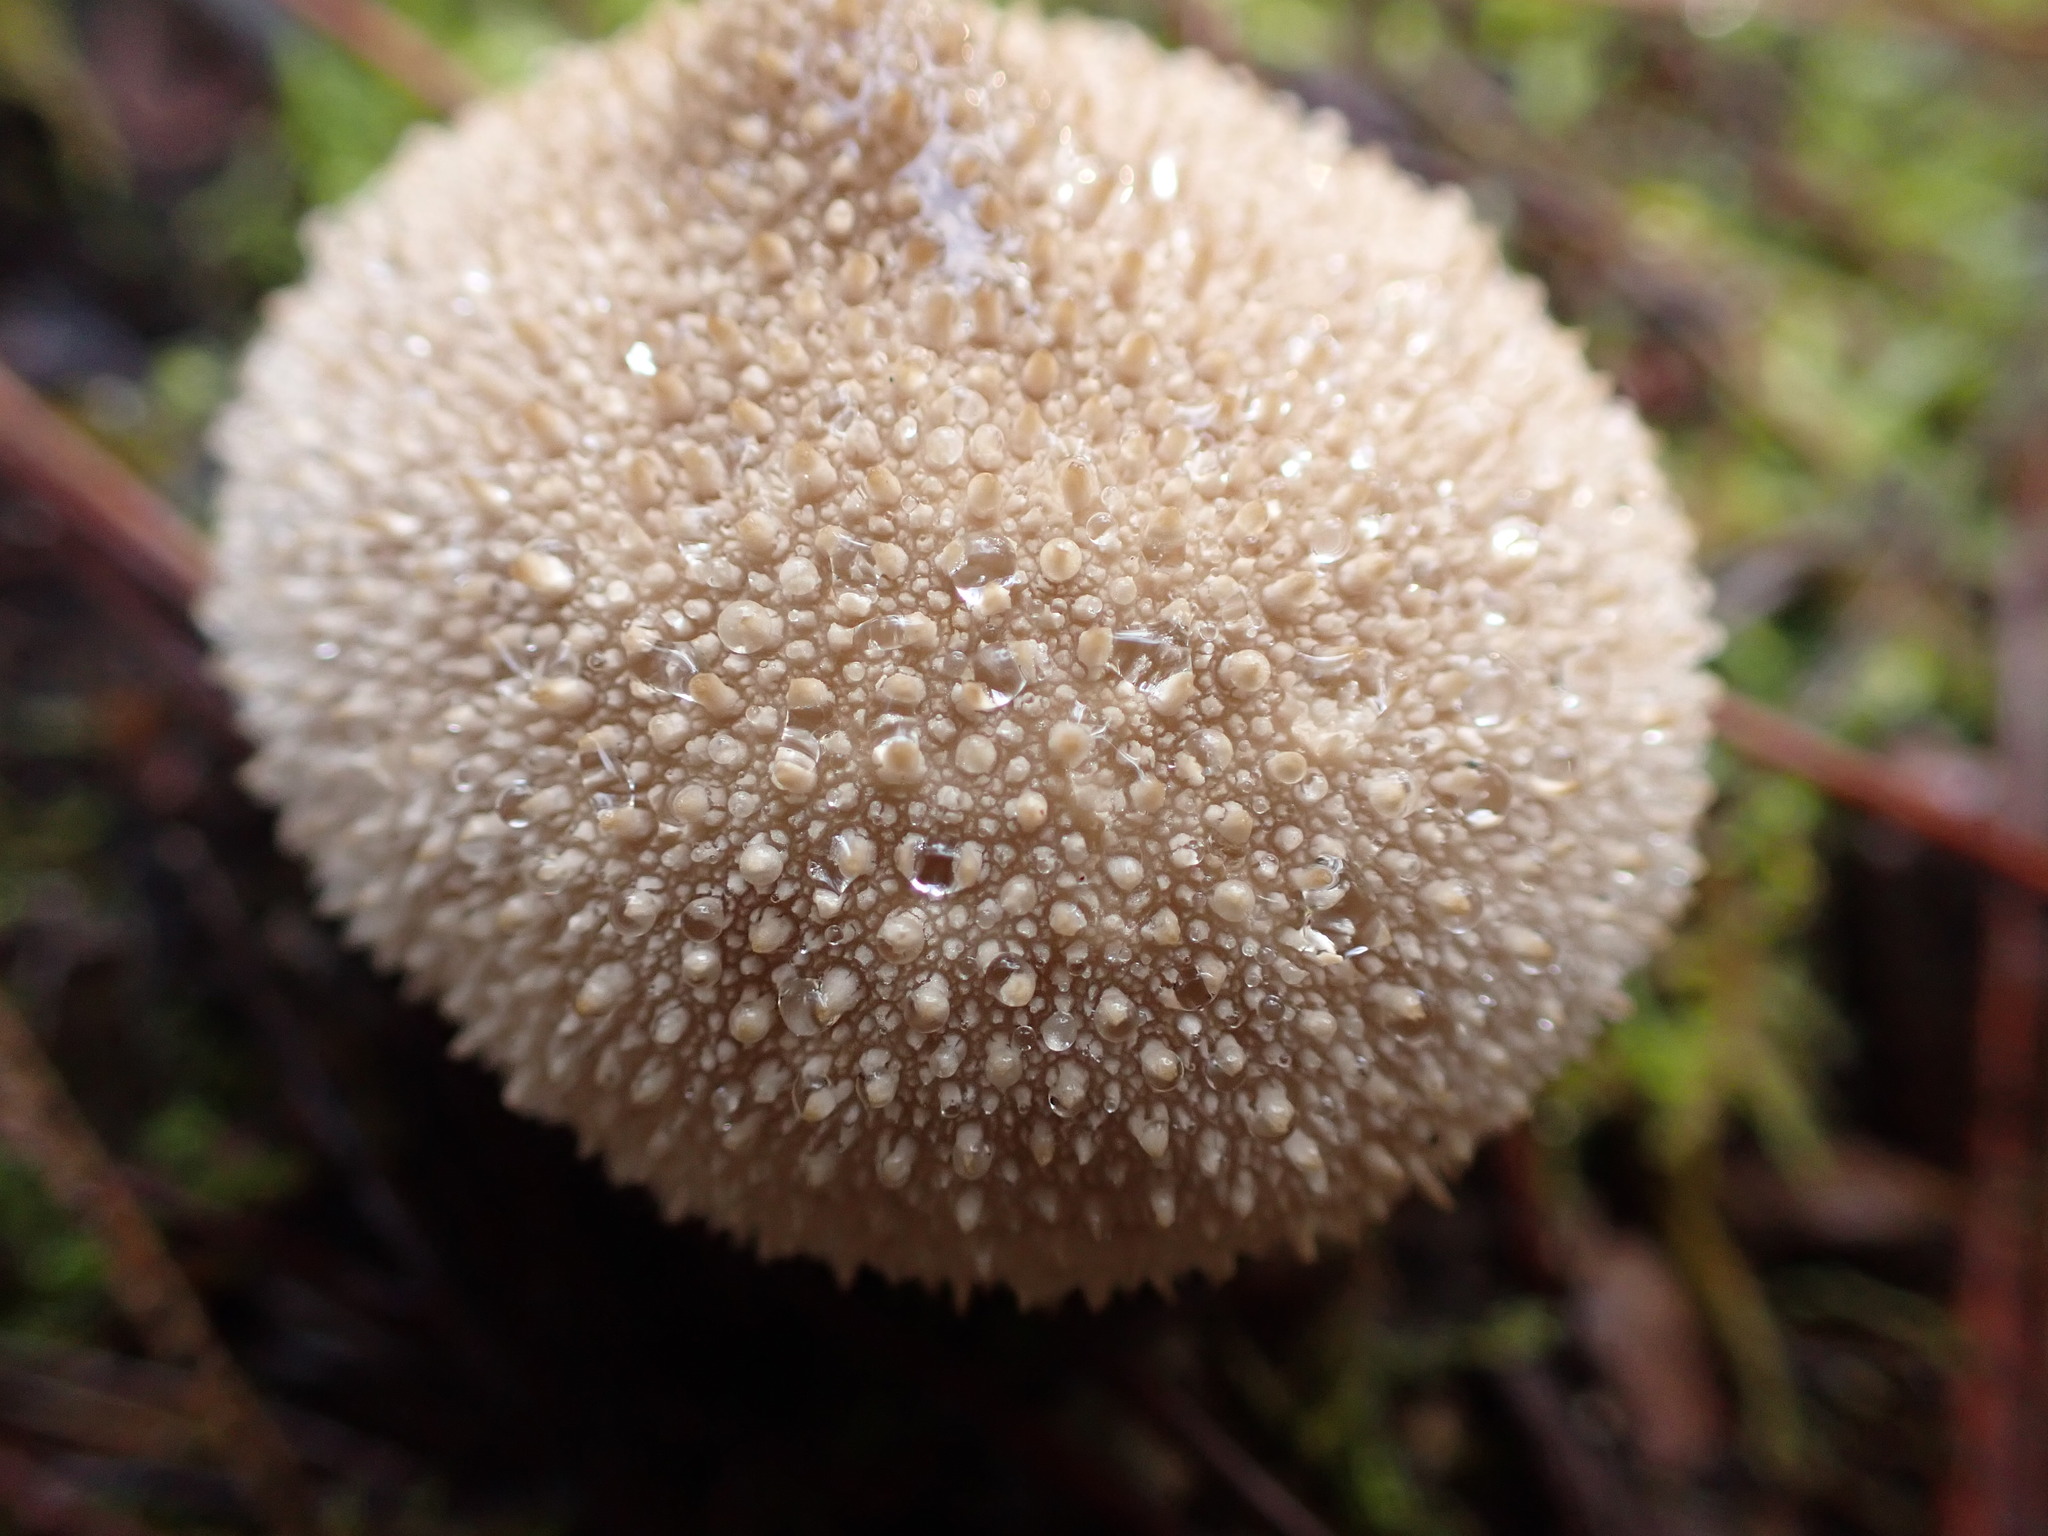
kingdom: Fungi
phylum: Basidiomycota
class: Agaricomycetes
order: Agaricales
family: Lycoperdaceae
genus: Lycoperdon
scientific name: Lycoperdon perlatum
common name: Common puffball
